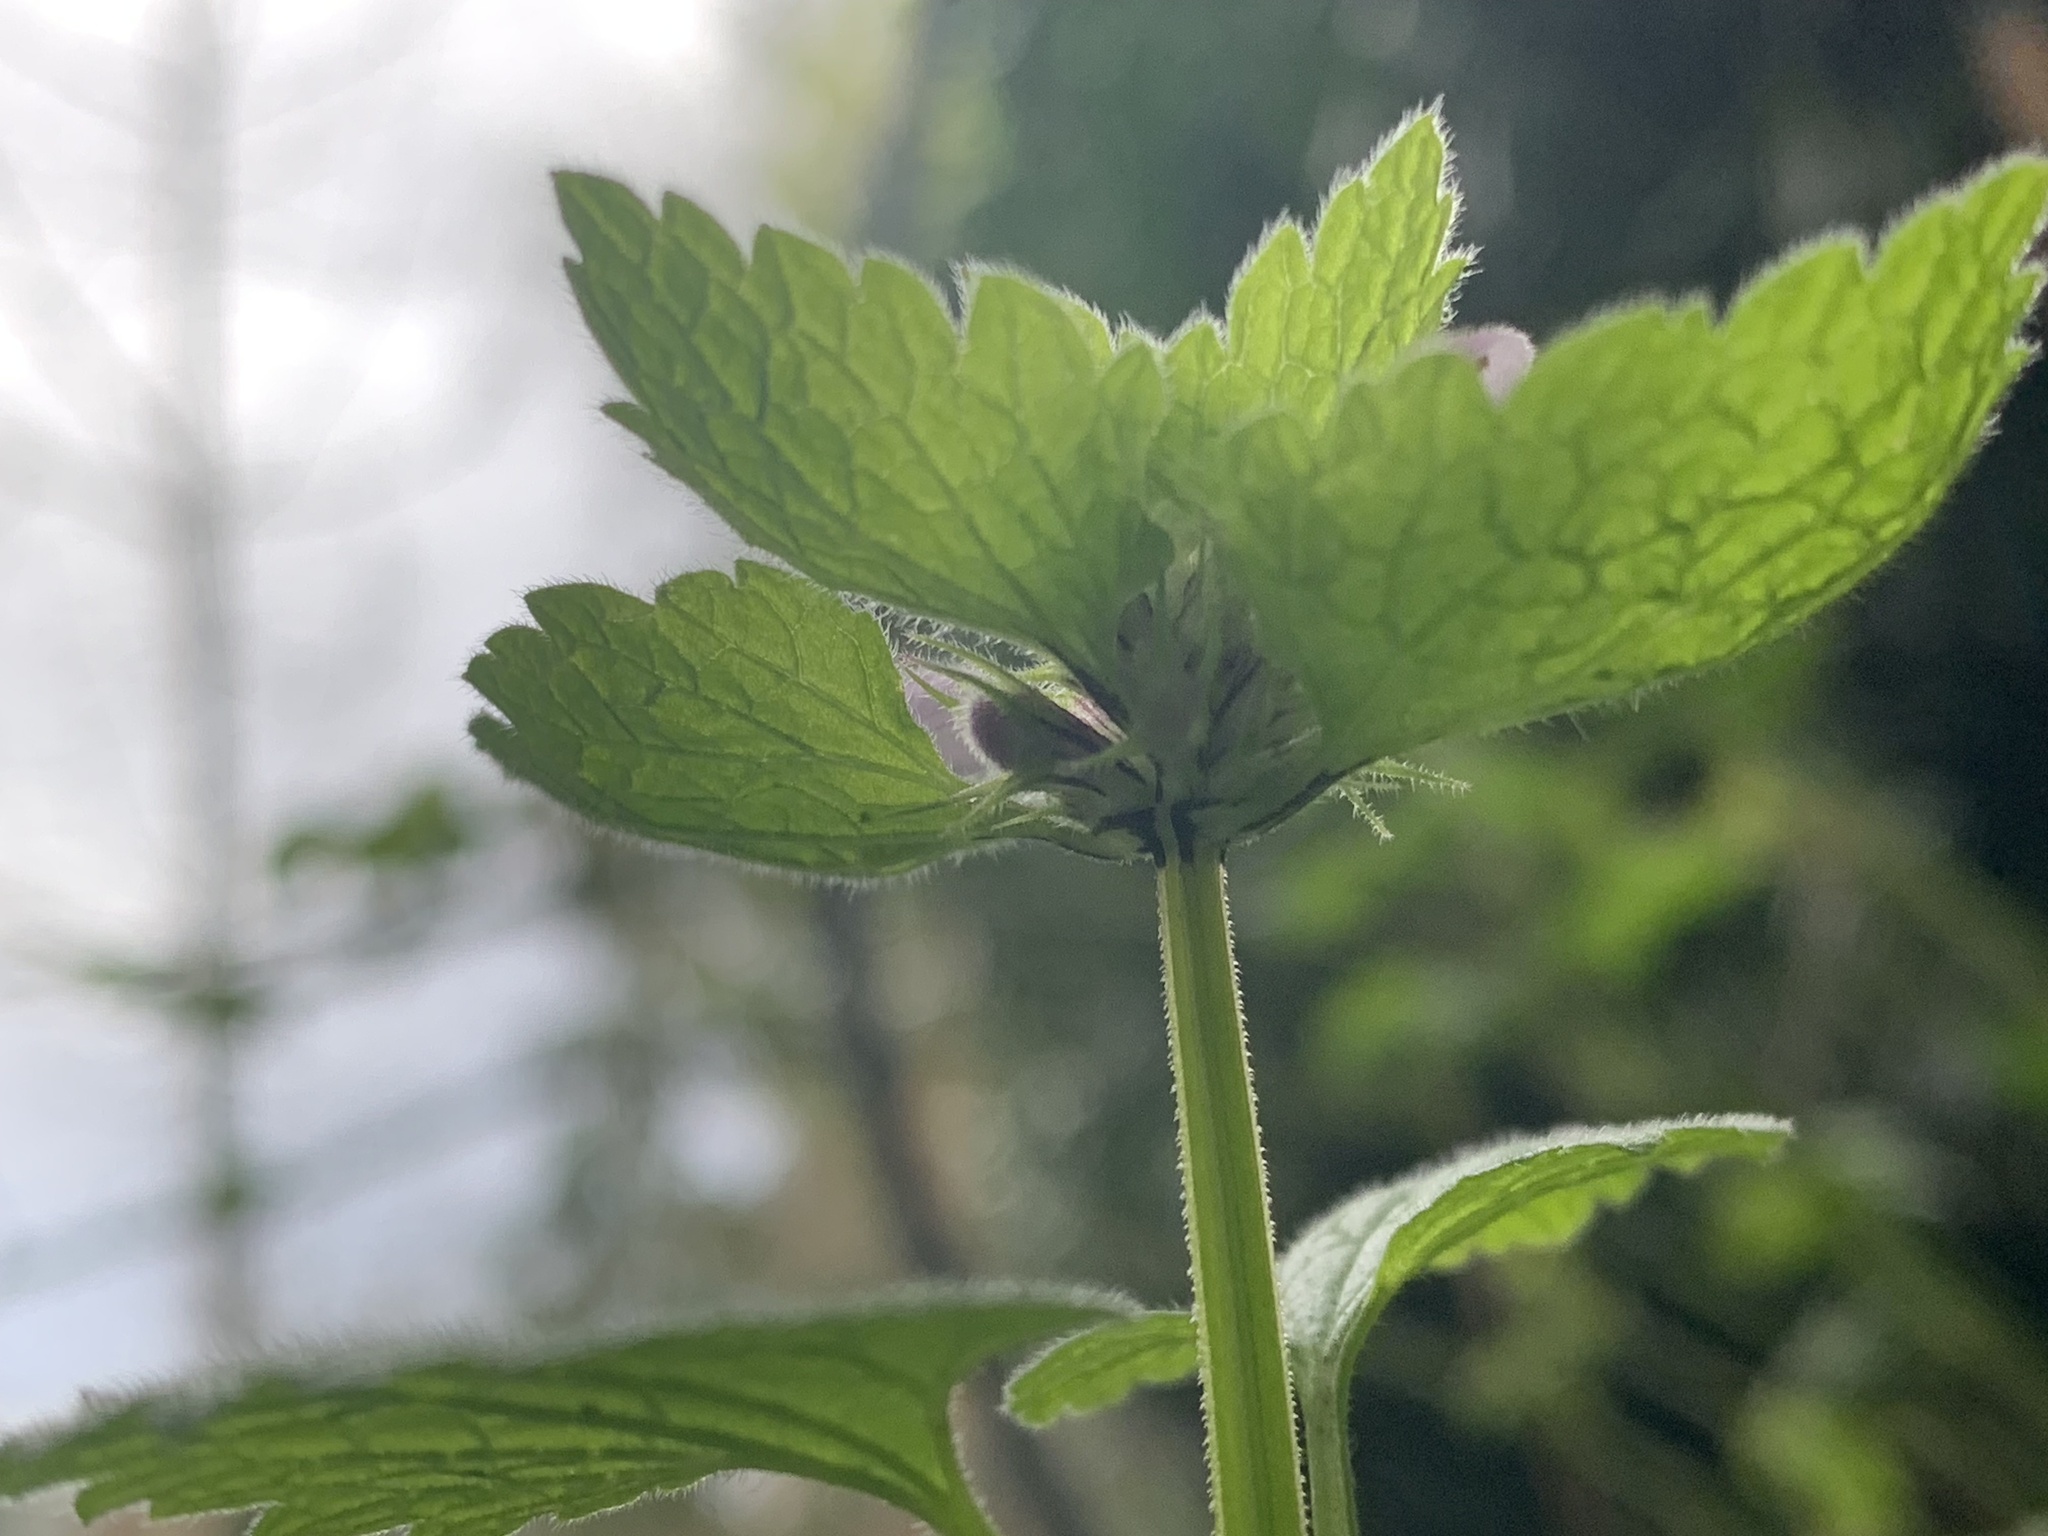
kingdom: Plantae
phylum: Tracheophyta
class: Magnoliopsida
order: Lamiales
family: Lamiaceae
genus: Lamium
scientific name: Lamium purpureum
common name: Red dead-nettle
